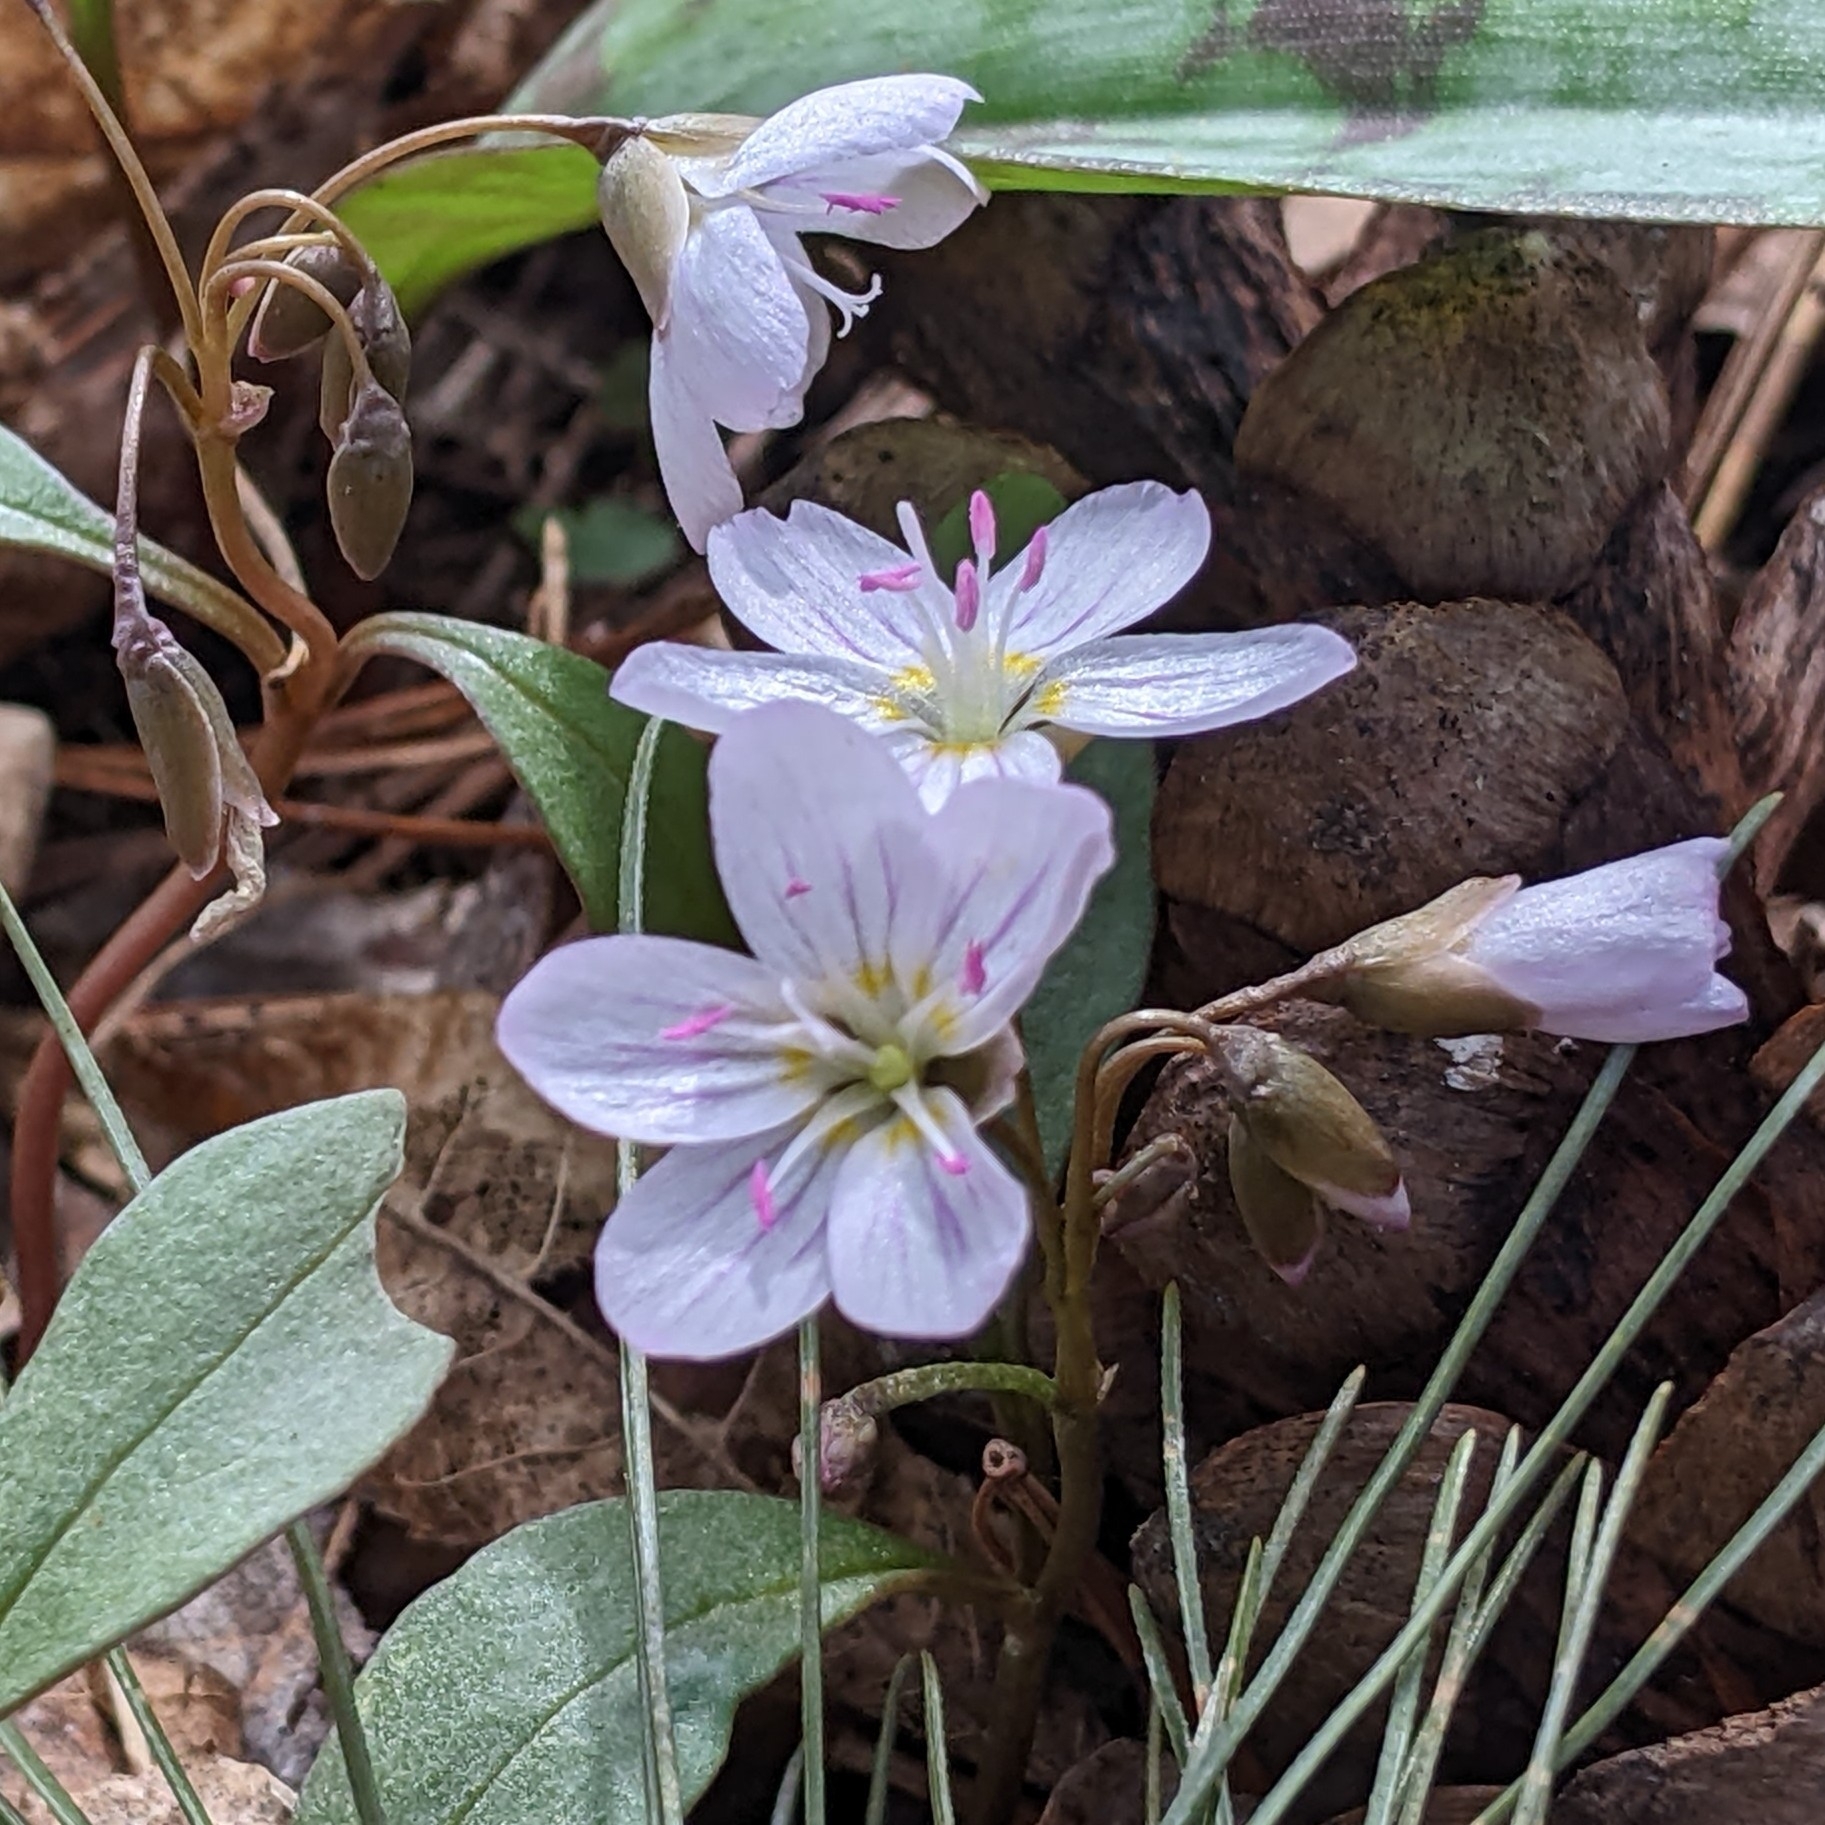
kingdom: Plantae
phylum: Tracheophyta
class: Magnoliopsida
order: Caryophyllales
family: Montiaceae
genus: Claytonia
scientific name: Claytonia caroliniana
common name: Carolina spring beauty
